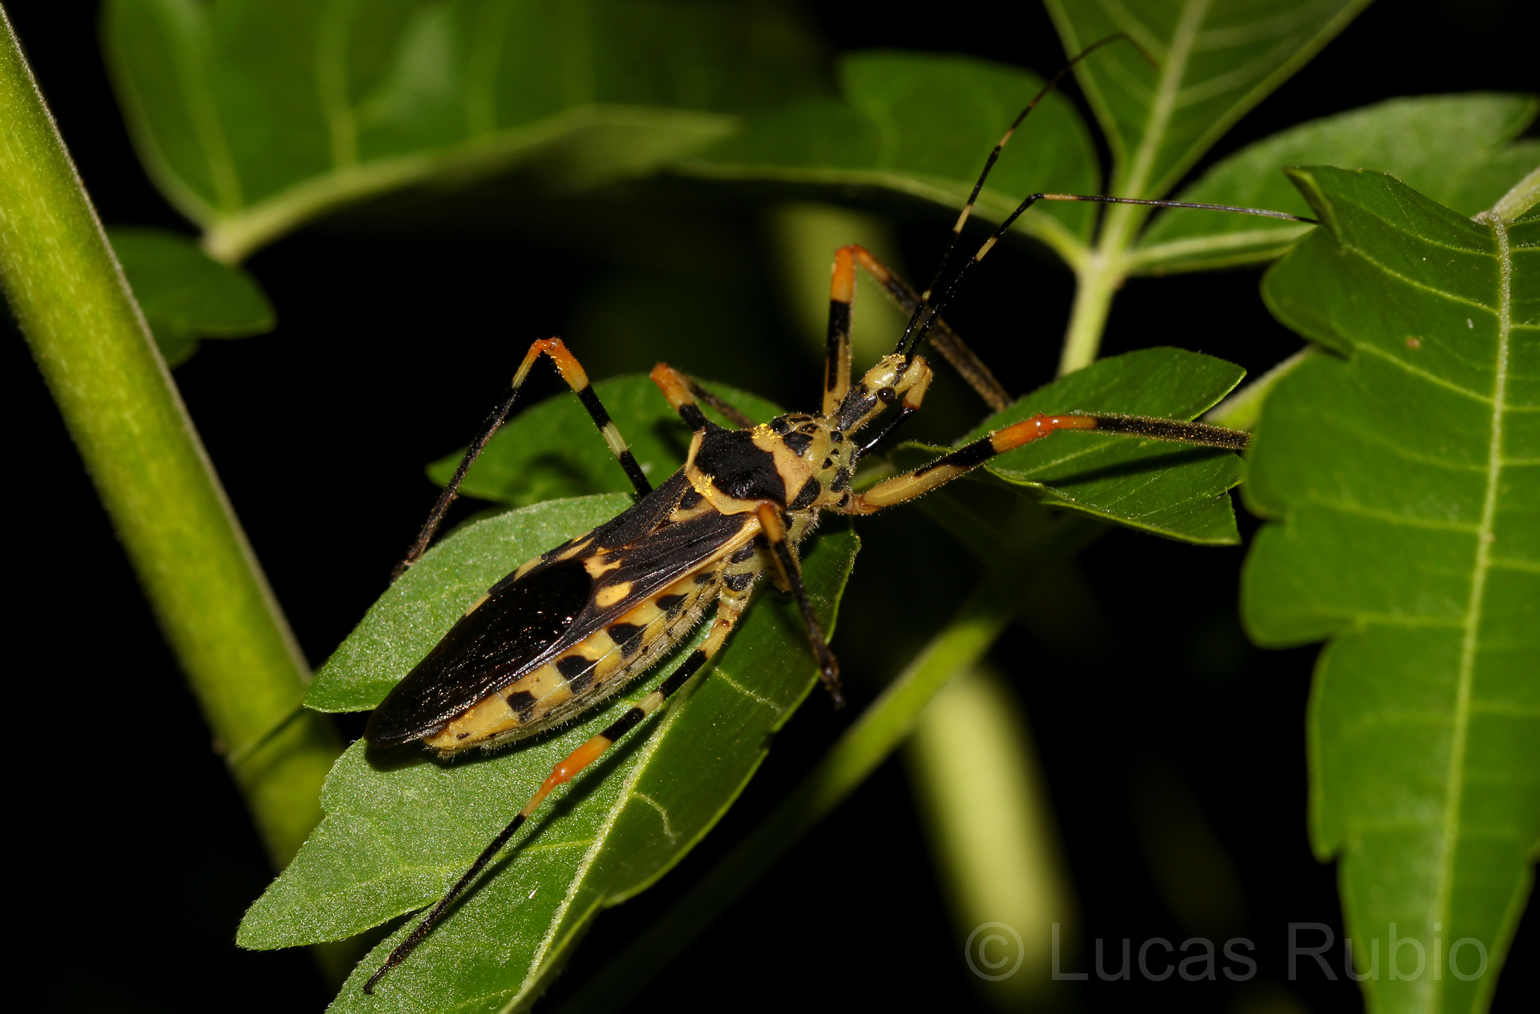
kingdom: Animalia
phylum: Arthropoda
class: Insecta
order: Hemiptera
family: Reduviidae
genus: Zelus
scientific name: Zelus armillatus
